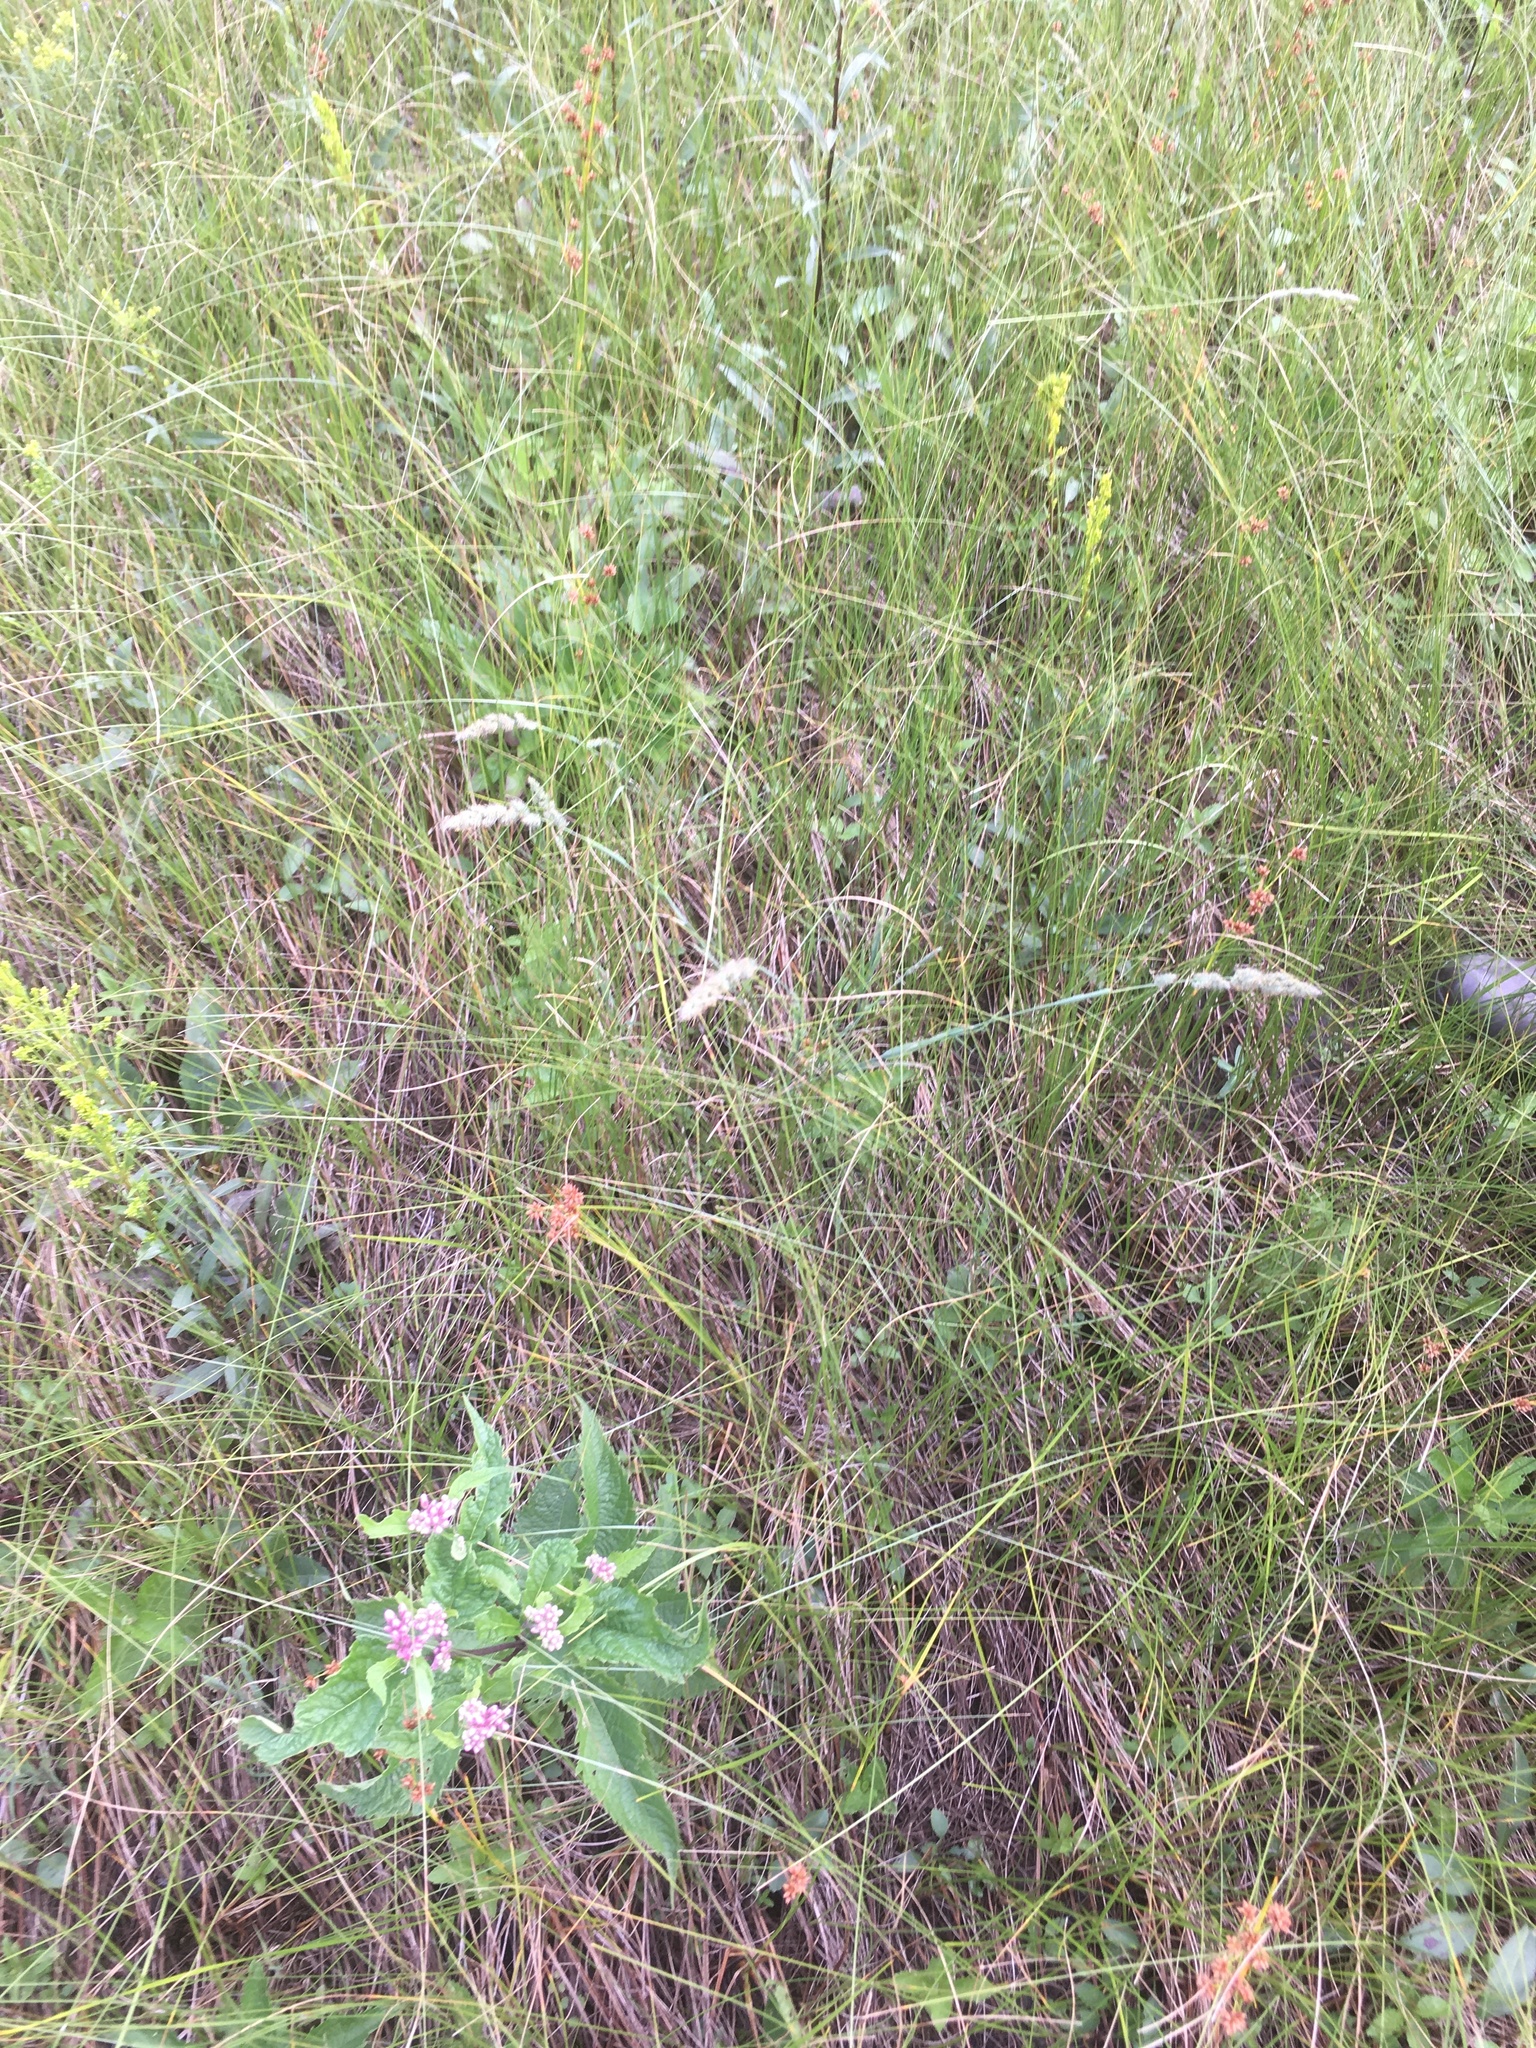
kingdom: Plantae
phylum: Tracheophyta
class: Liliopsida
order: Poales
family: Poaceae
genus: Muhlenbergia
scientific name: Muhlenbergia glomerata
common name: Bog muhly
